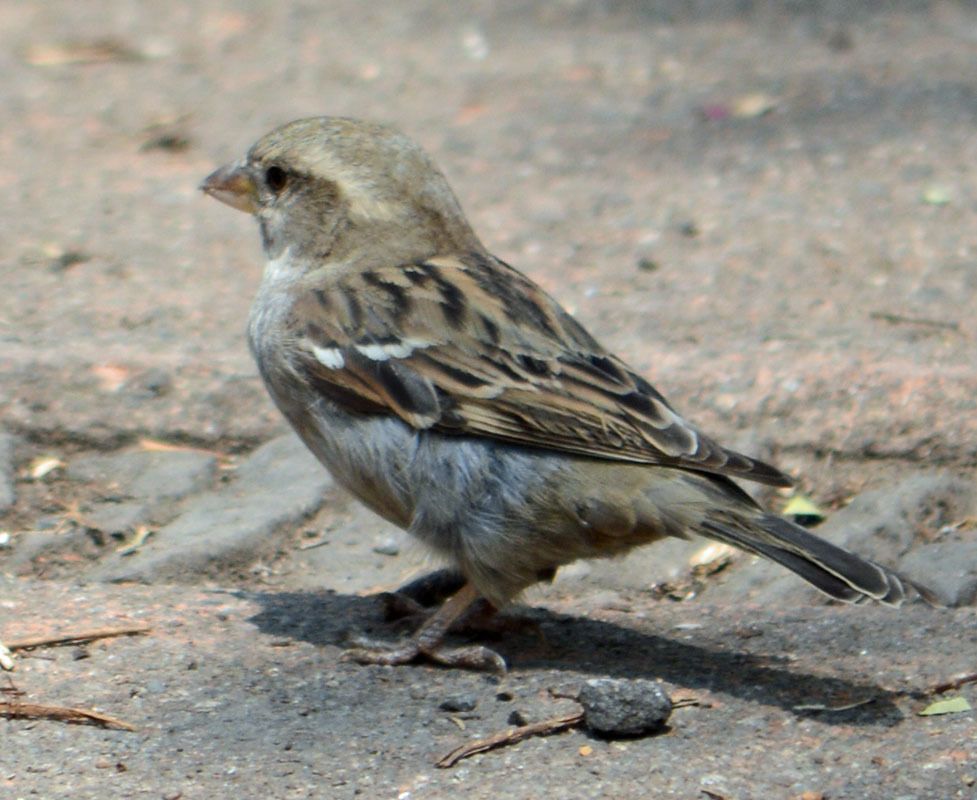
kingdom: Animalia
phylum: Chordata
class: Aves
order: Passeriformes
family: Passeridae
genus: Passer
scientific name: Passer domesticus
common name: House sparrow
